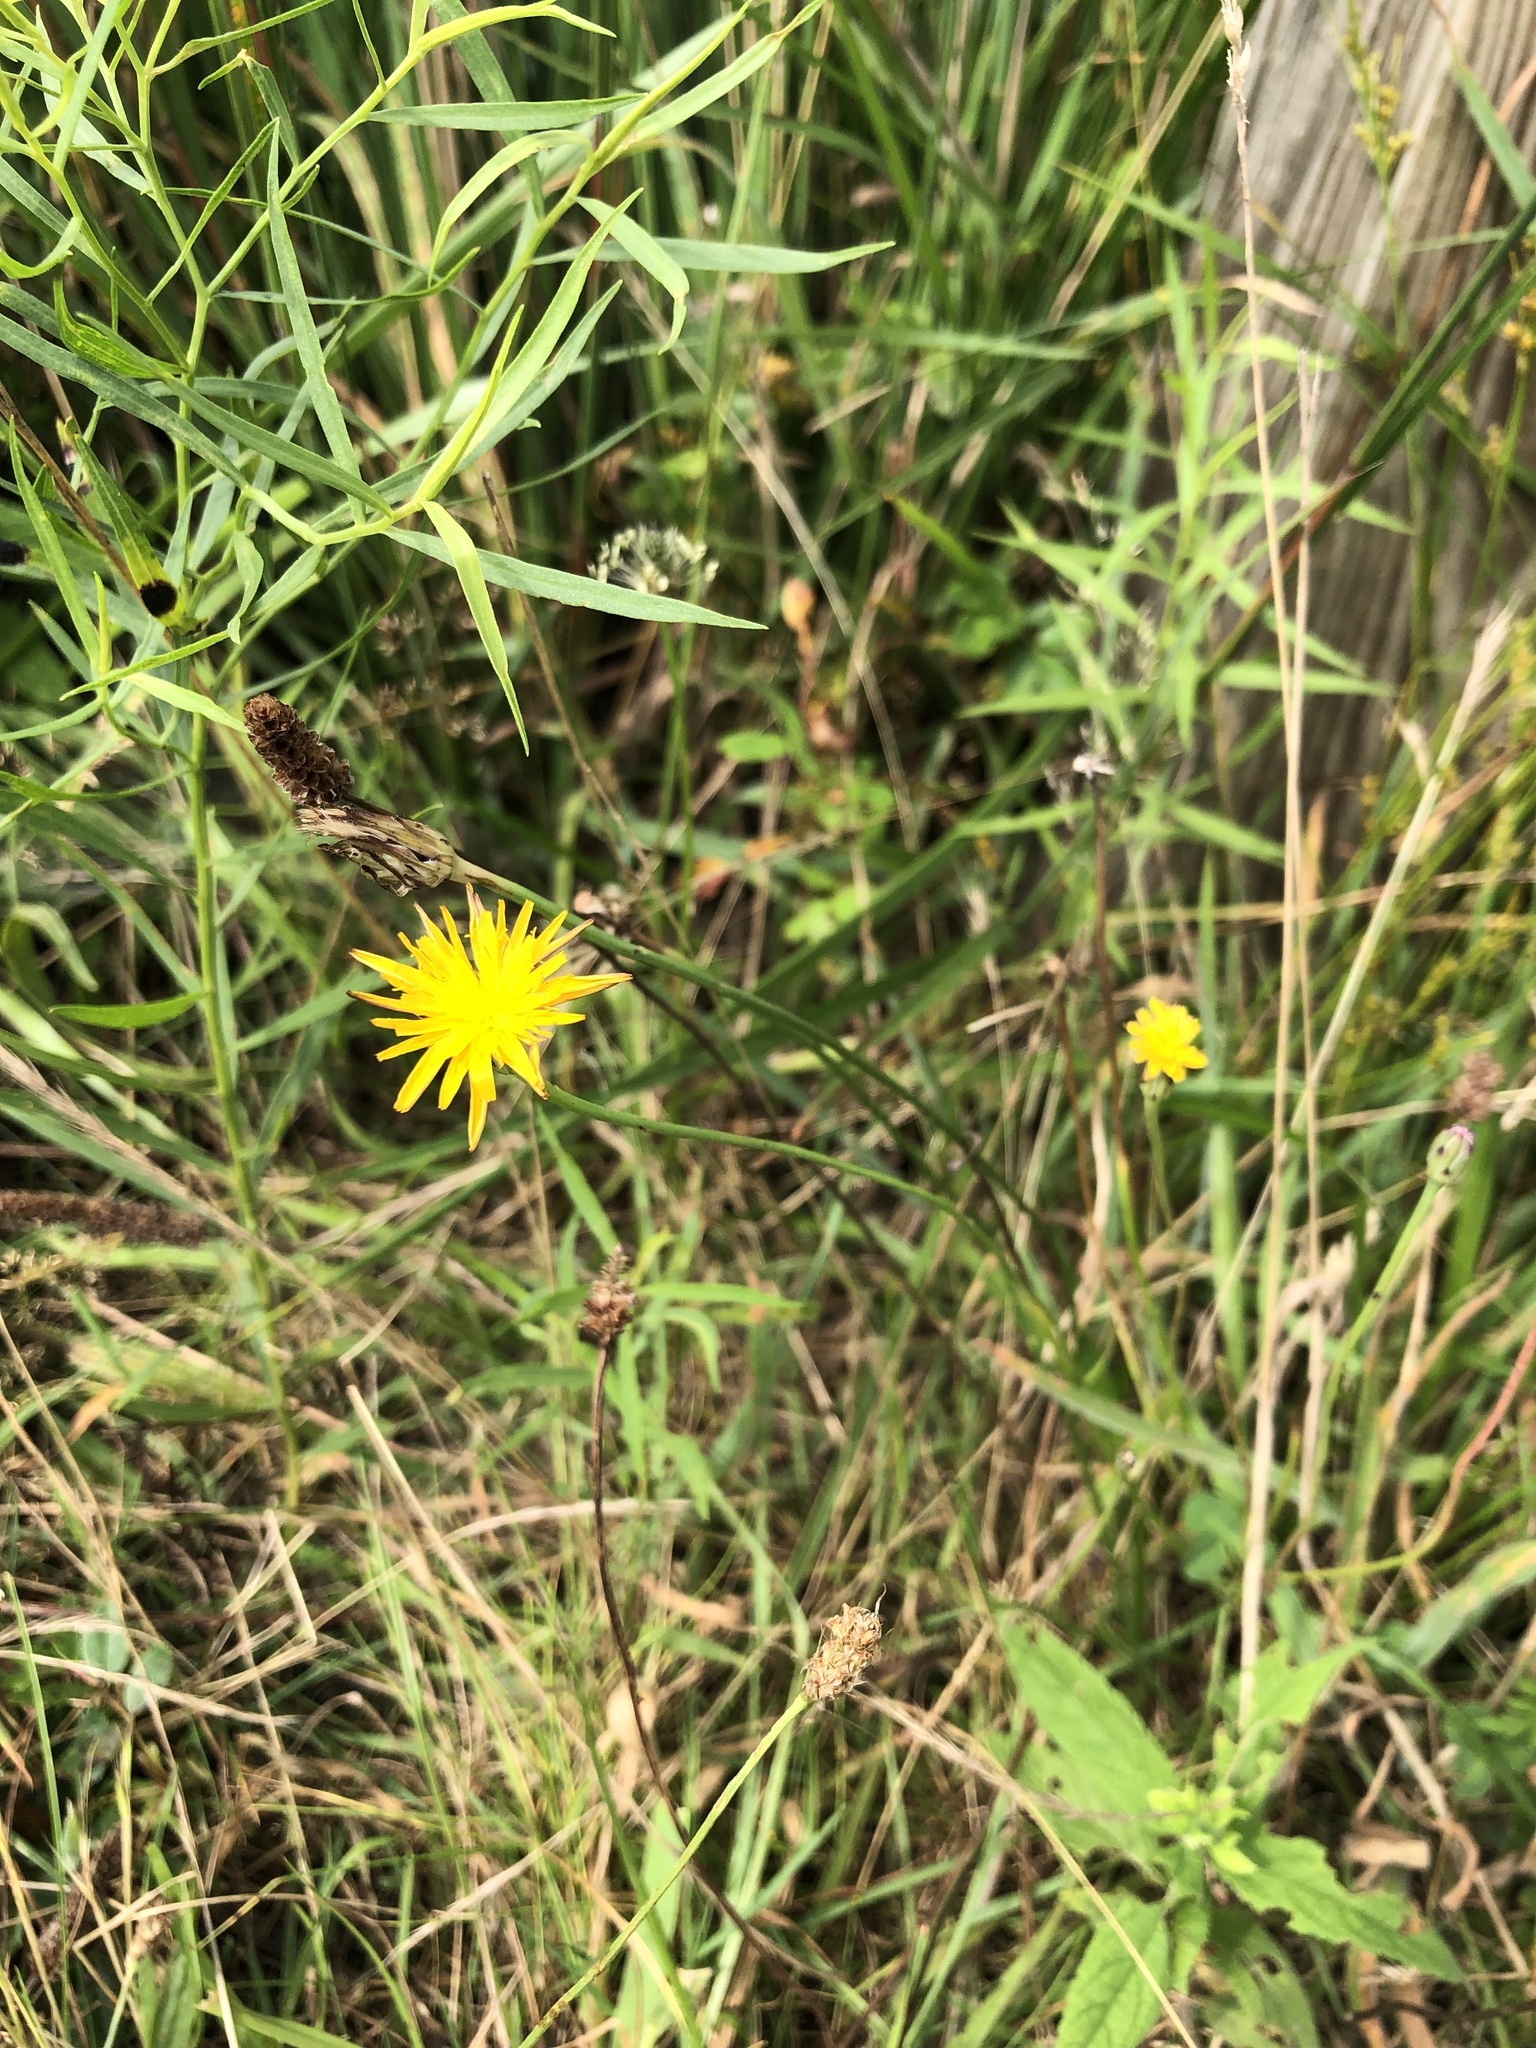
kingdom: Plantae
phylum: Tracheophyta
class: Magnoliopsida
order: Asterales
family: Asteraceae
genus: Hypochaeris
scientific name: Hypochaeris radicata
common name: Flatweed
